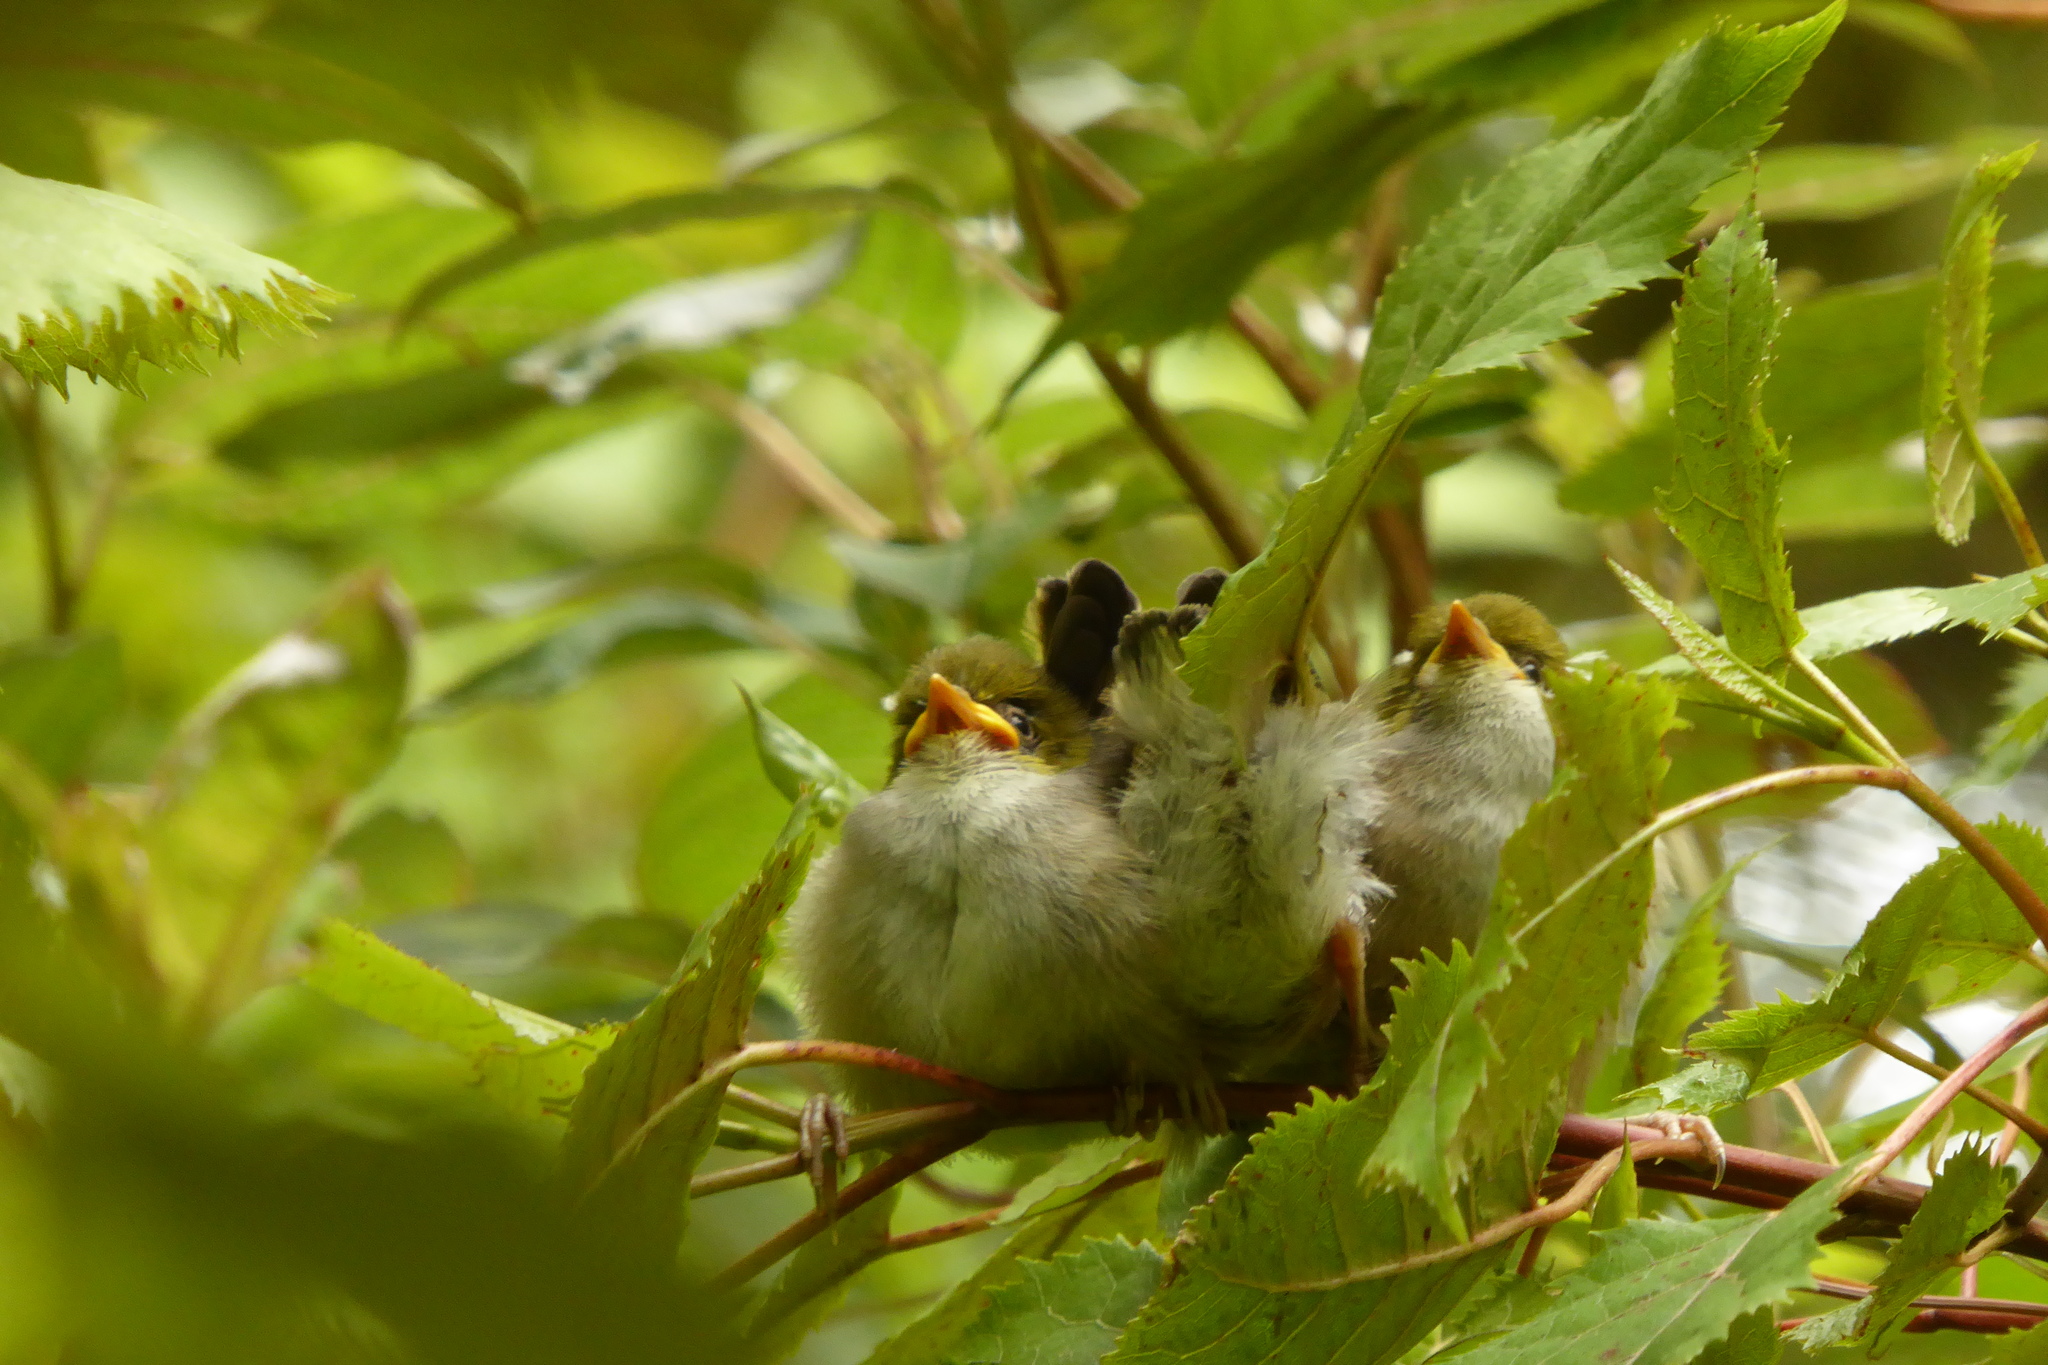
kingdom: Animalia
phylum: Chordata
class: Aves
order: Passeriformes
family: Zosteropidae
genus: Zosterops
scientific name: Zosterops lateralis
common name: Silvereye
